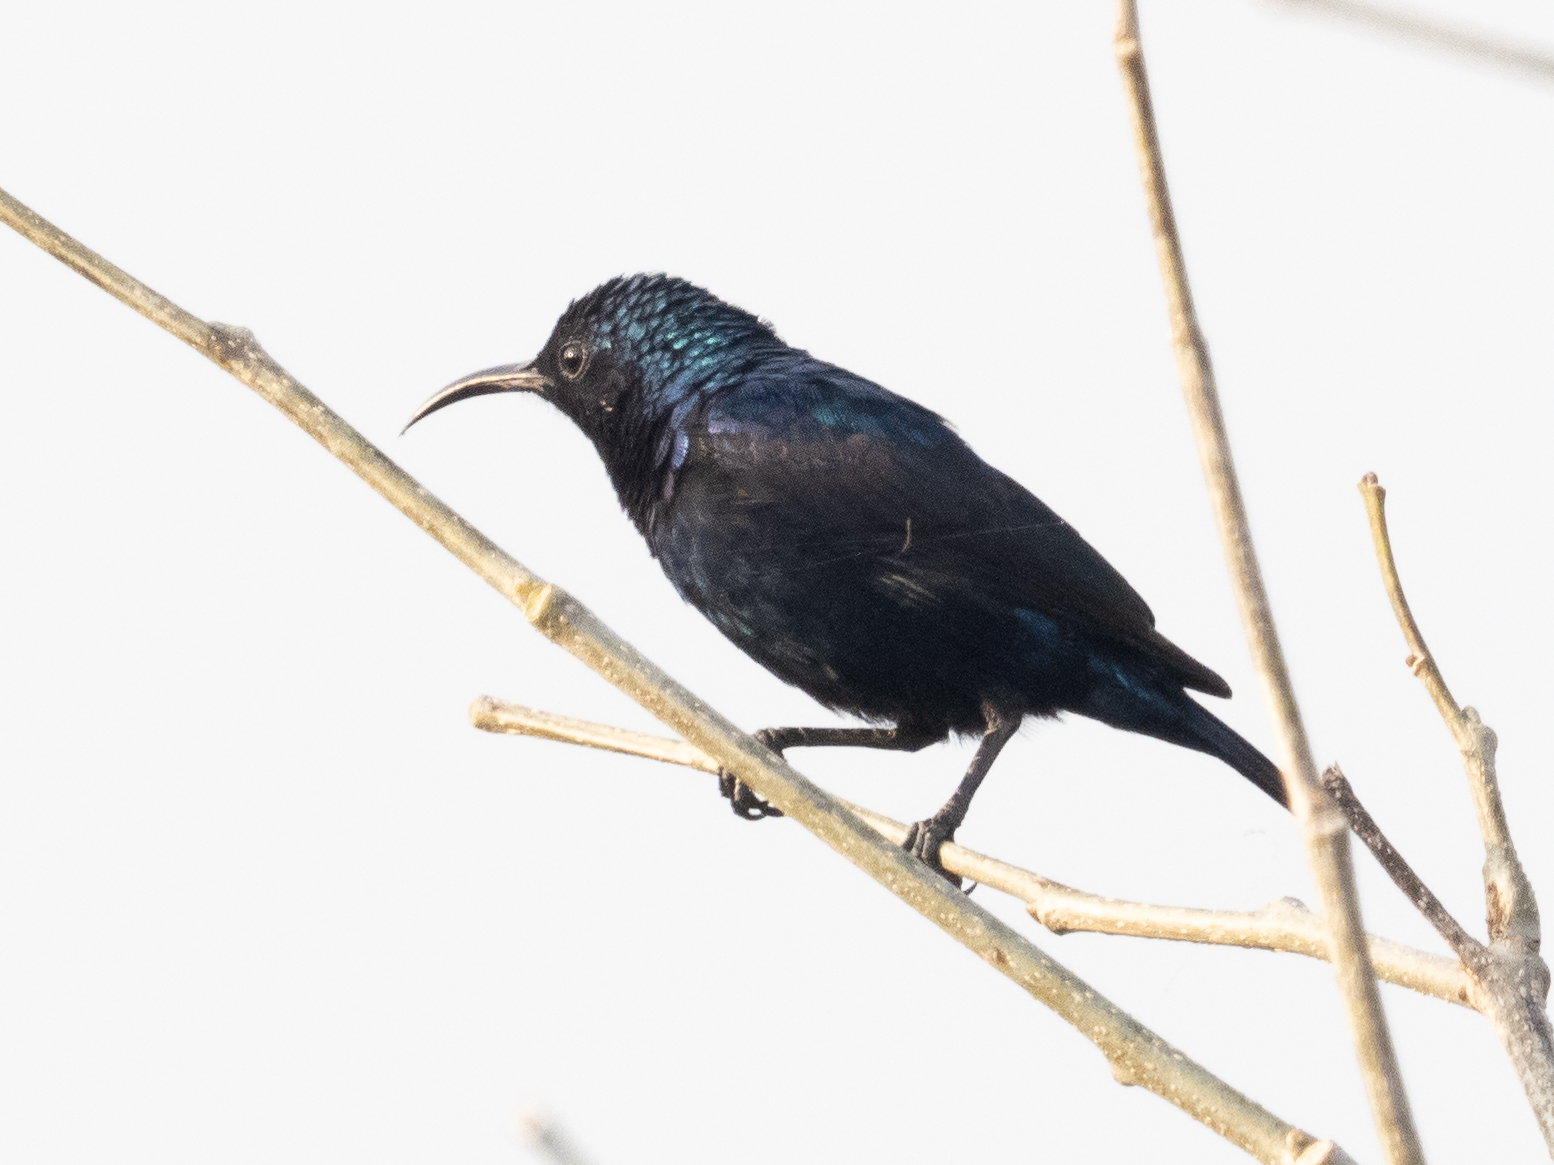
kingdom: Animalia
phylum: Chordata
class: Aves
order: Passeriformes
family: Nectariniidae
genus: Cinnyris
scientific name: Cinnyris asiaticus
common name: Purple sunbird
